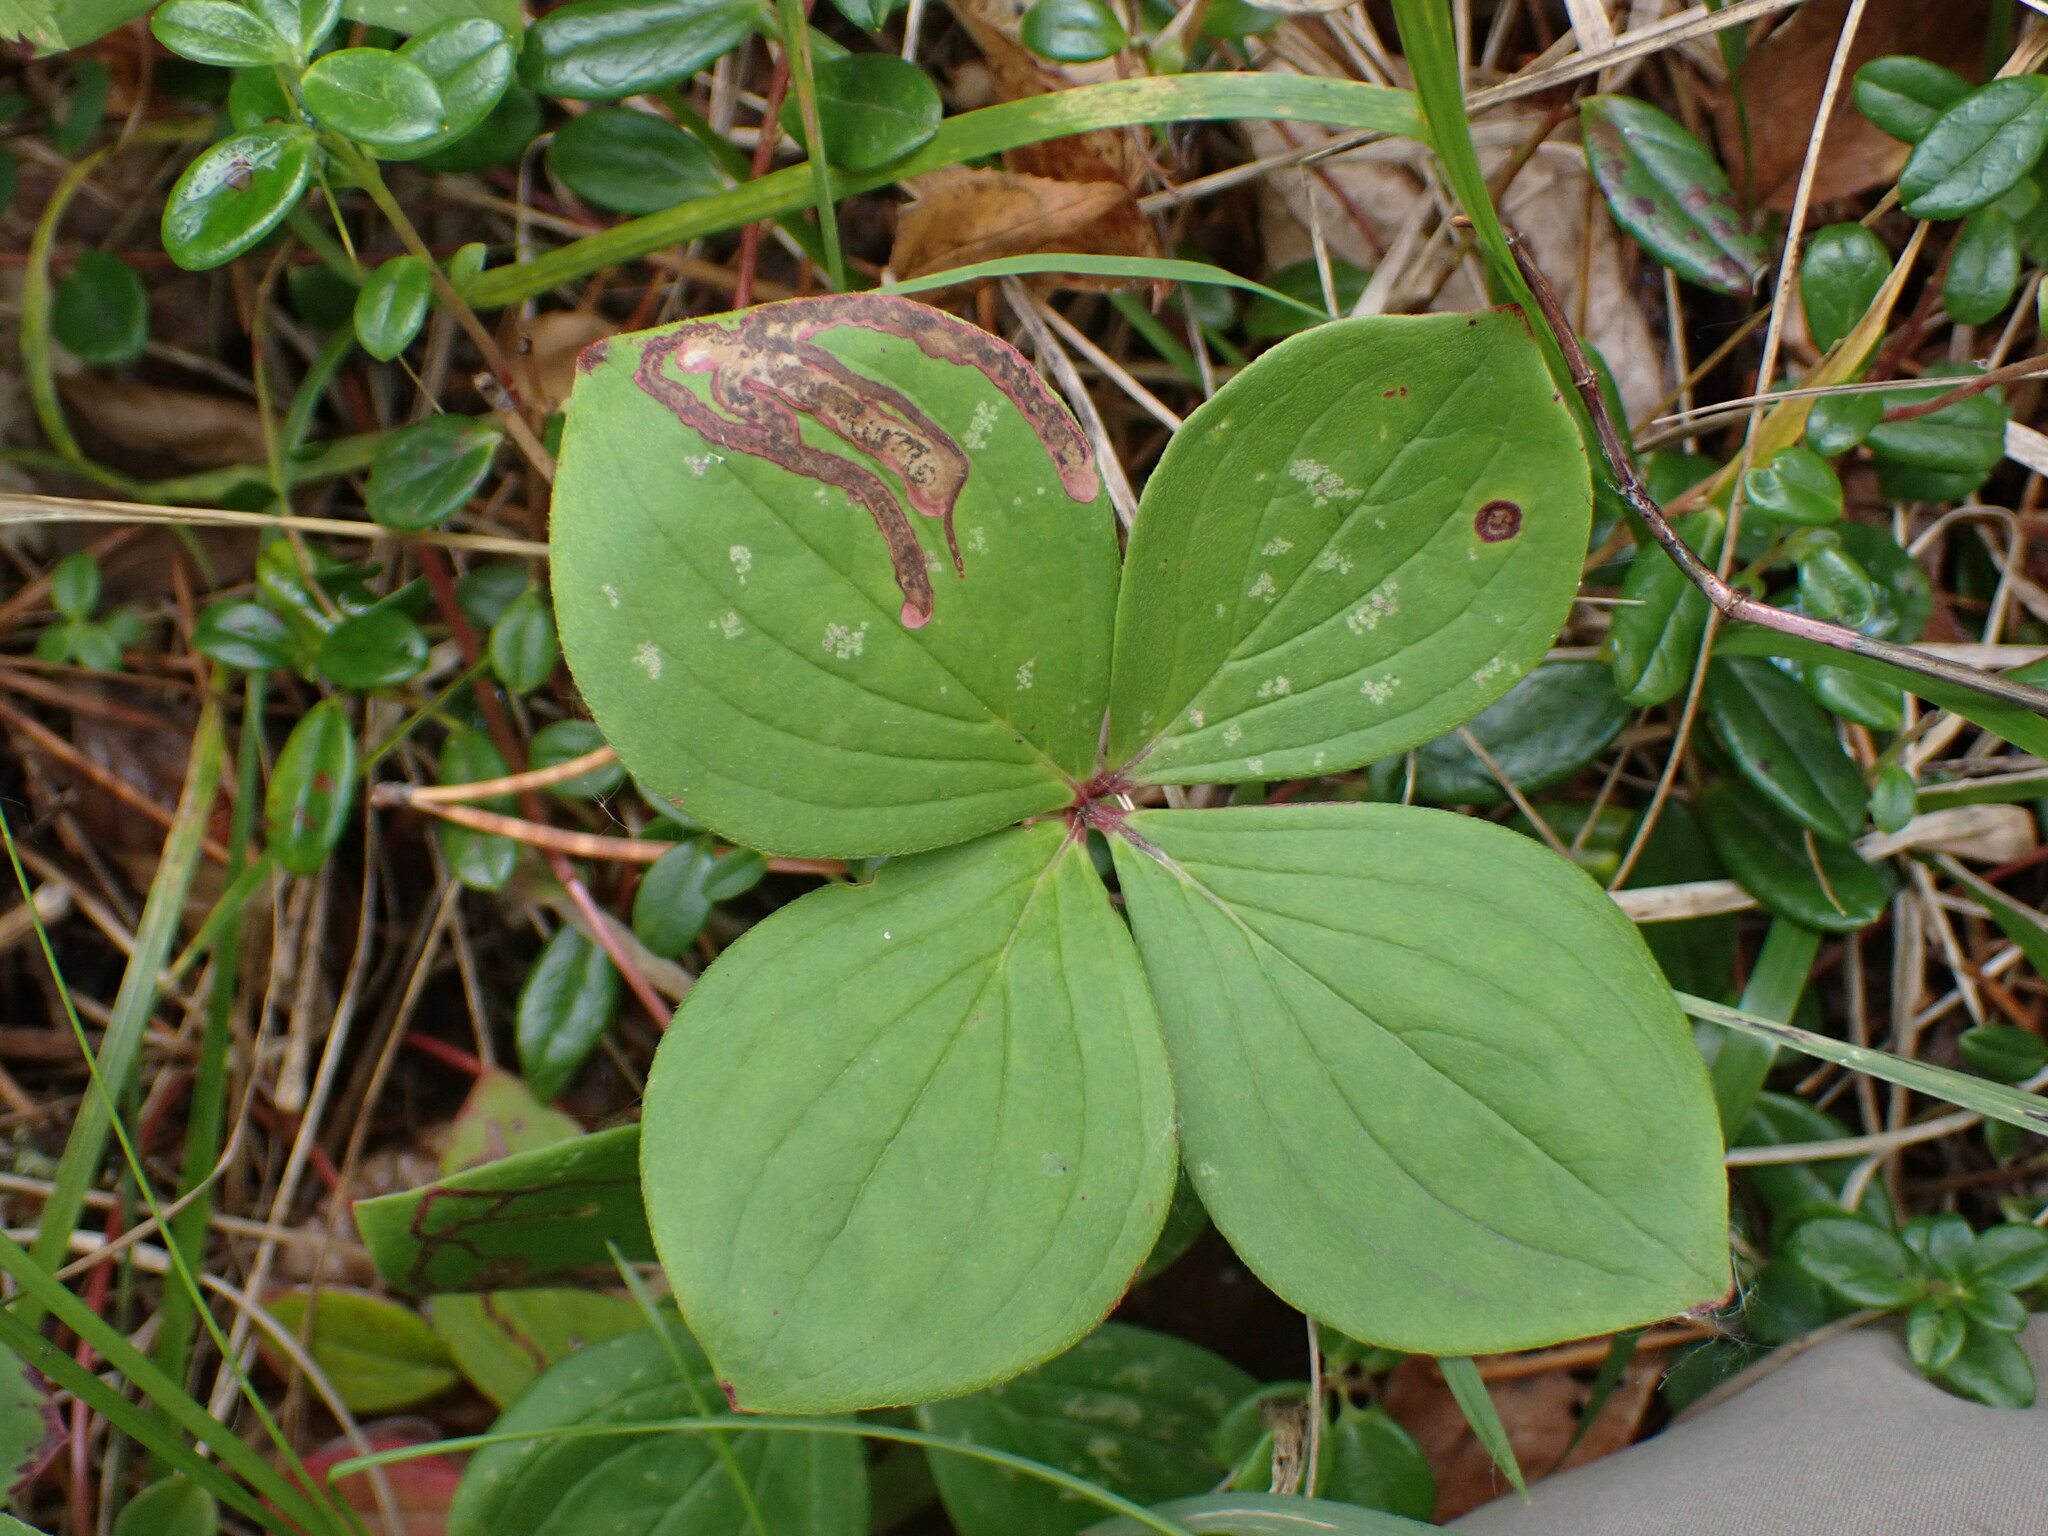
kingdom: Plantae
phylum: Tracheophyta
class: Magnoliopsida
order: Cornales
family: Cornaceae
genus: Cornus
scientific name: Cornus canadensis
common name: Creeping dogwood
